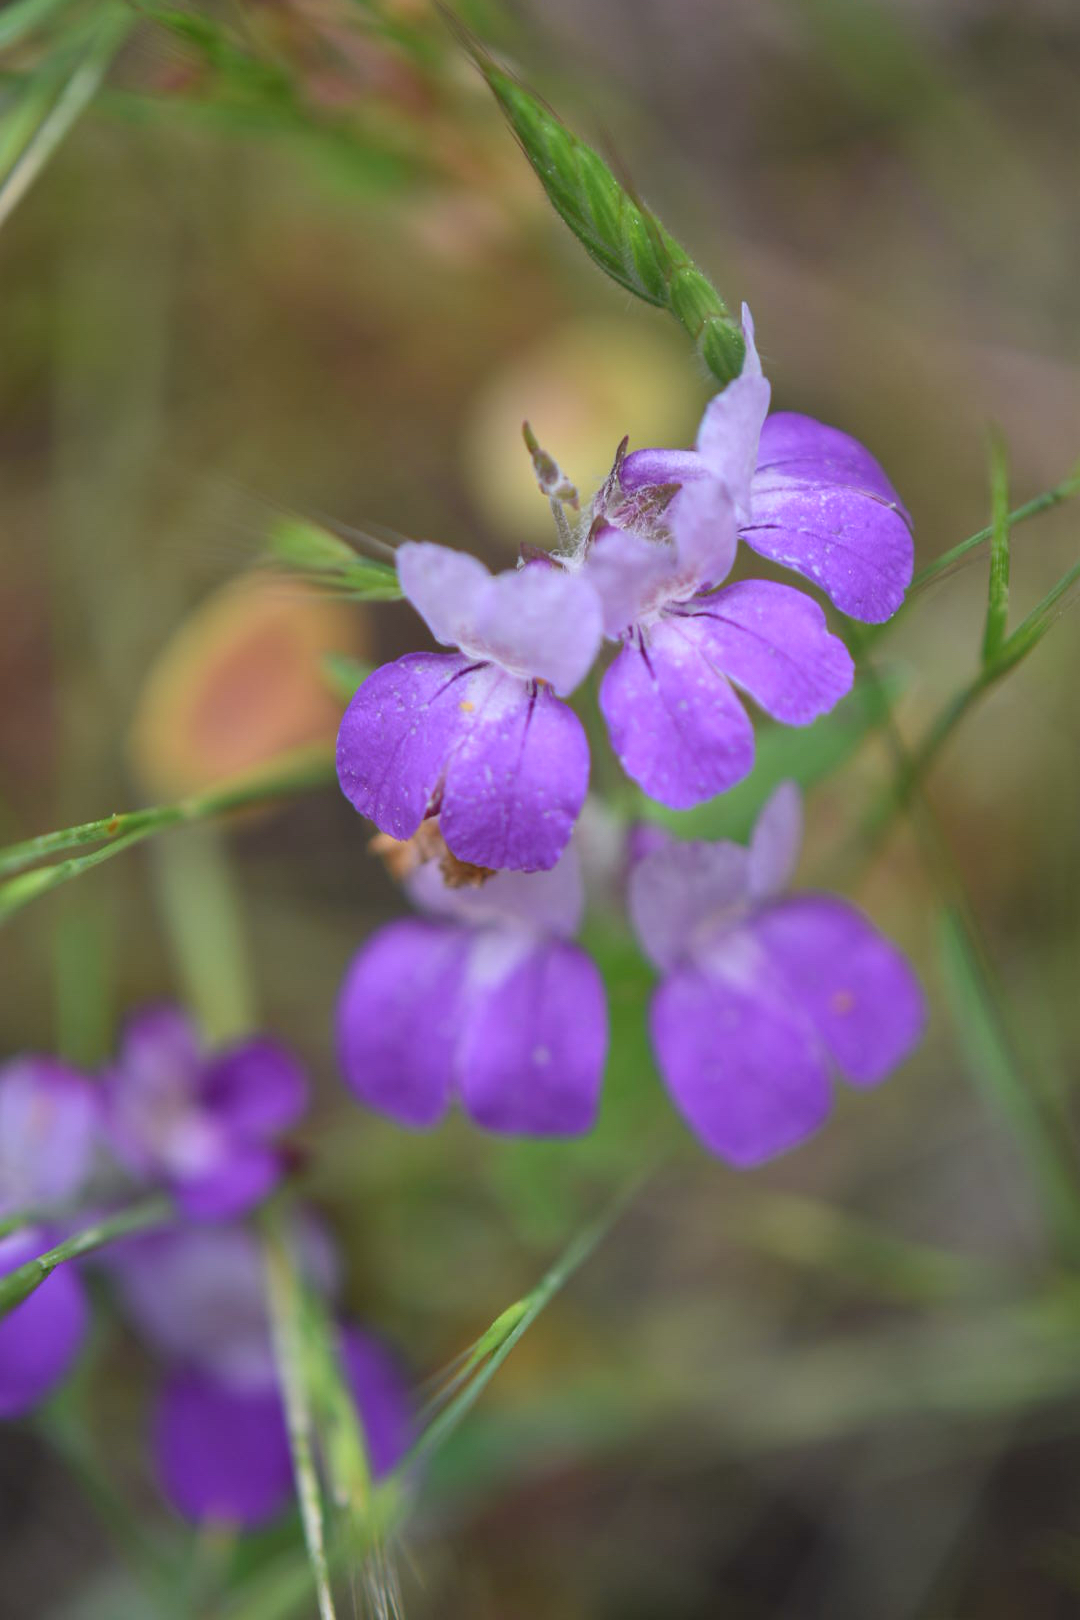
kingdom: Plantae
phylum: Tracheophyta
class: Magnoliopsida
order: Lamiales
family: Plantaginaceae
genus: Collinsia
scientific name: Collinsia heterophylla
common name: Chinese-houses
